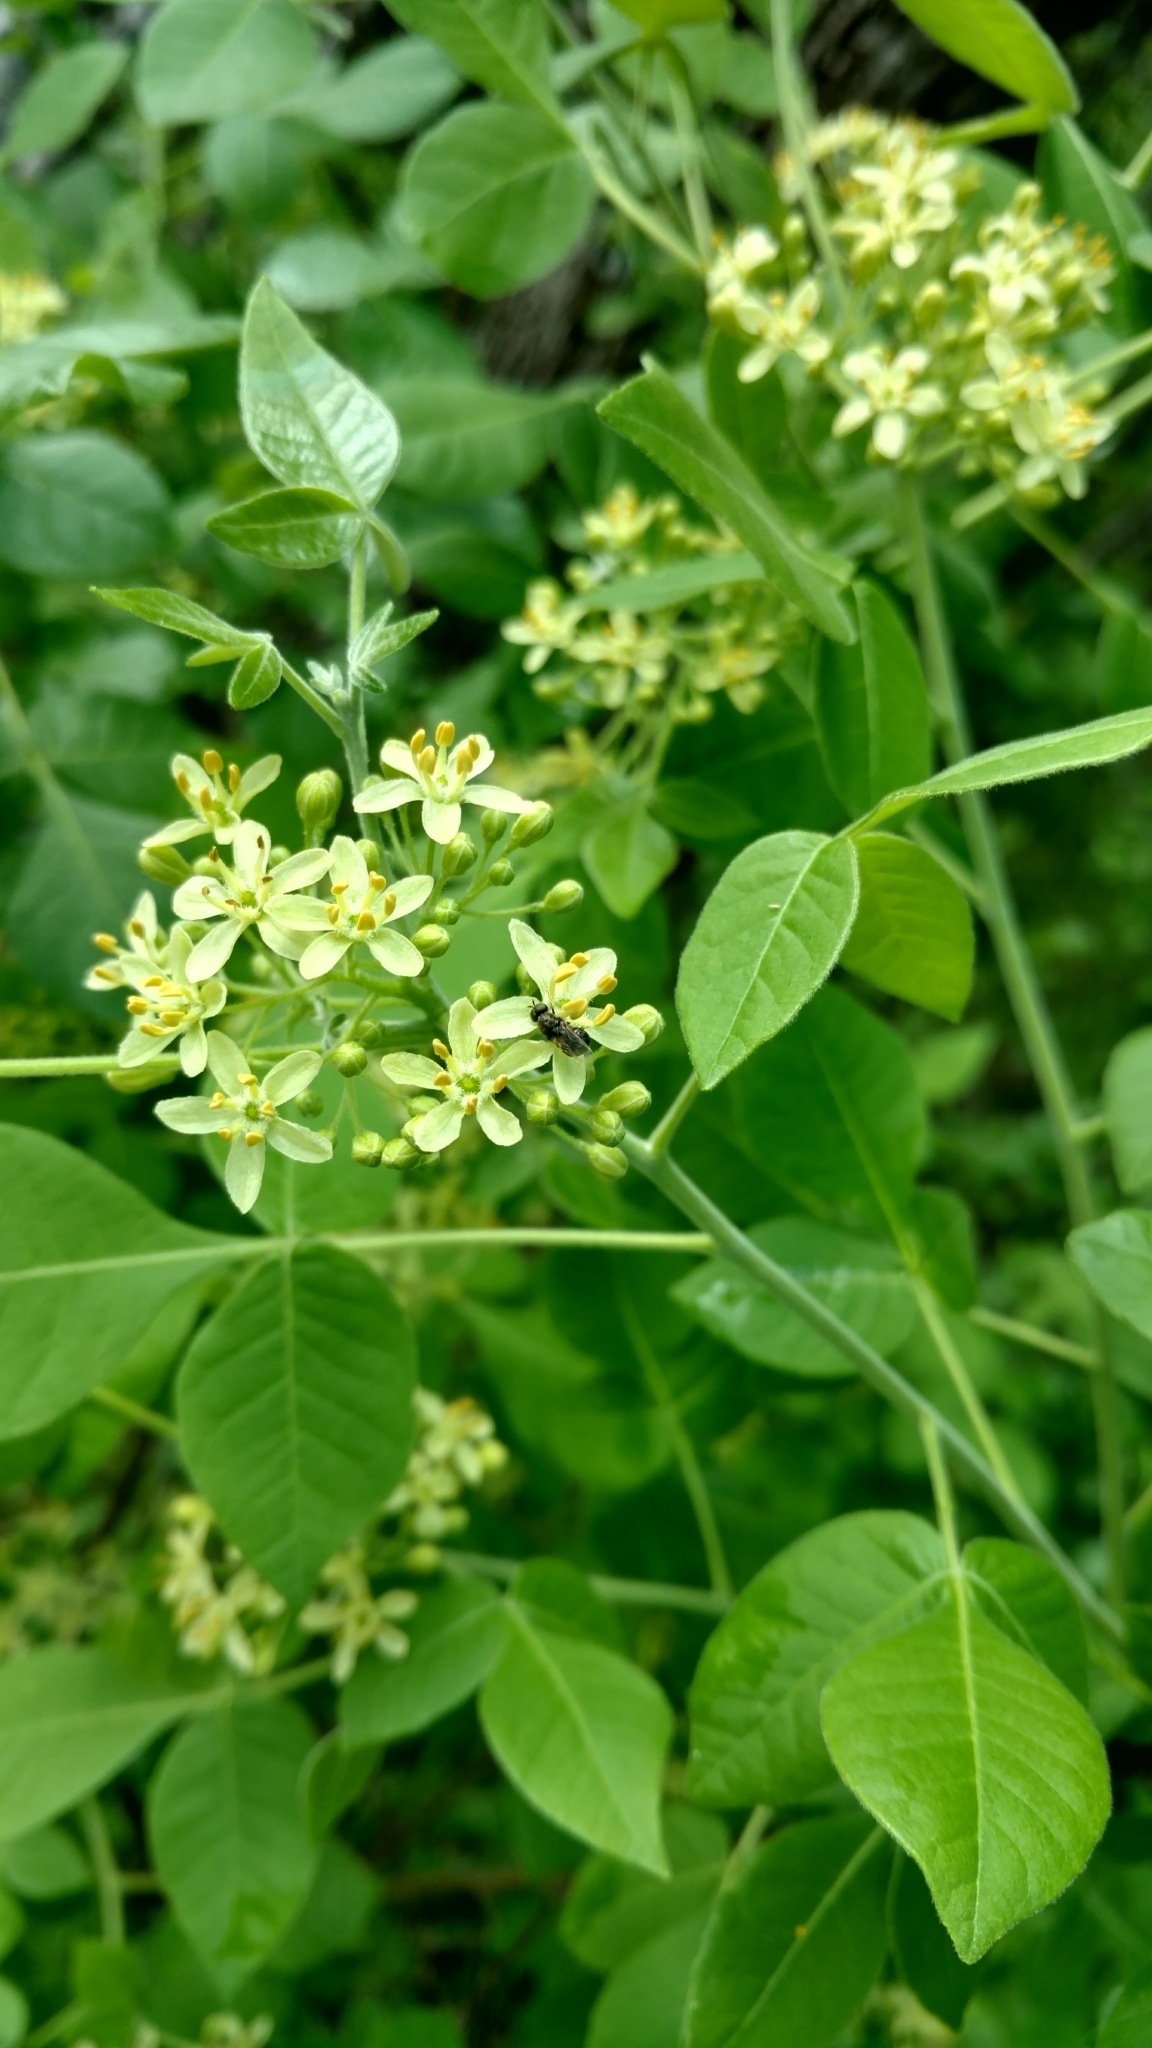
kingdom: Plantae
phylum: Tracheophyta
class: Magnoliopsida
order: Sapindales
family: Rutaceae
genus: Ptelea
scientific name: Ptelea trifoliata
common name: Common hop-tree
